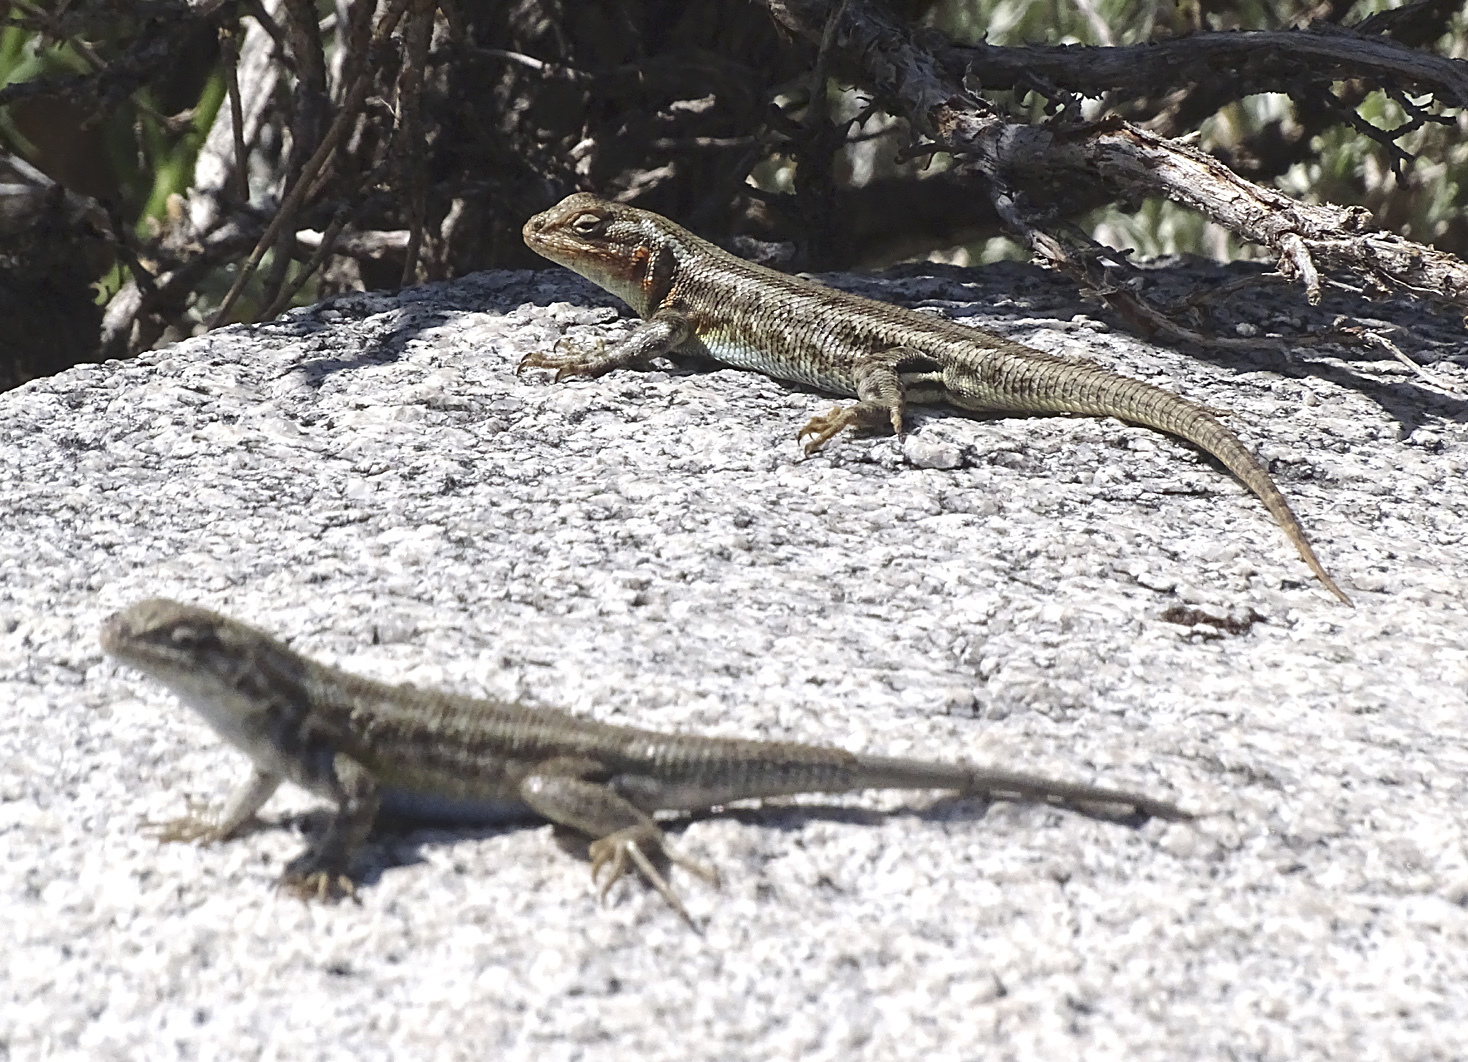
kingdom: Animalia
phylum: Chordata
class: Squamata
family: Phrynosomatidae
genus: Sceloporus
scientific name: Sceloporus graciosus
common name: Sagebrush lizard
